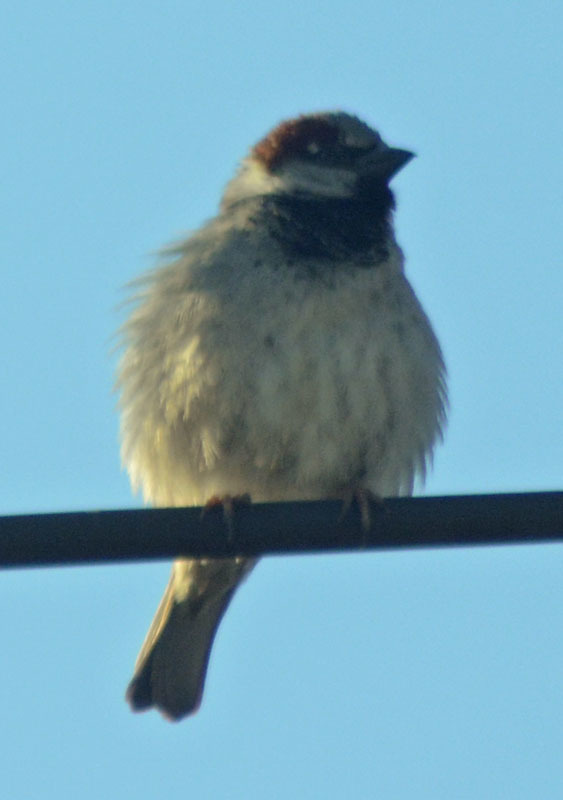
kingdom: Animalia
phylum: Chordata
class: Aves
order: Passeriformes
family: Passeridae
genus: Passer
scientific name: Passer domesticus
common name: House sparrow
